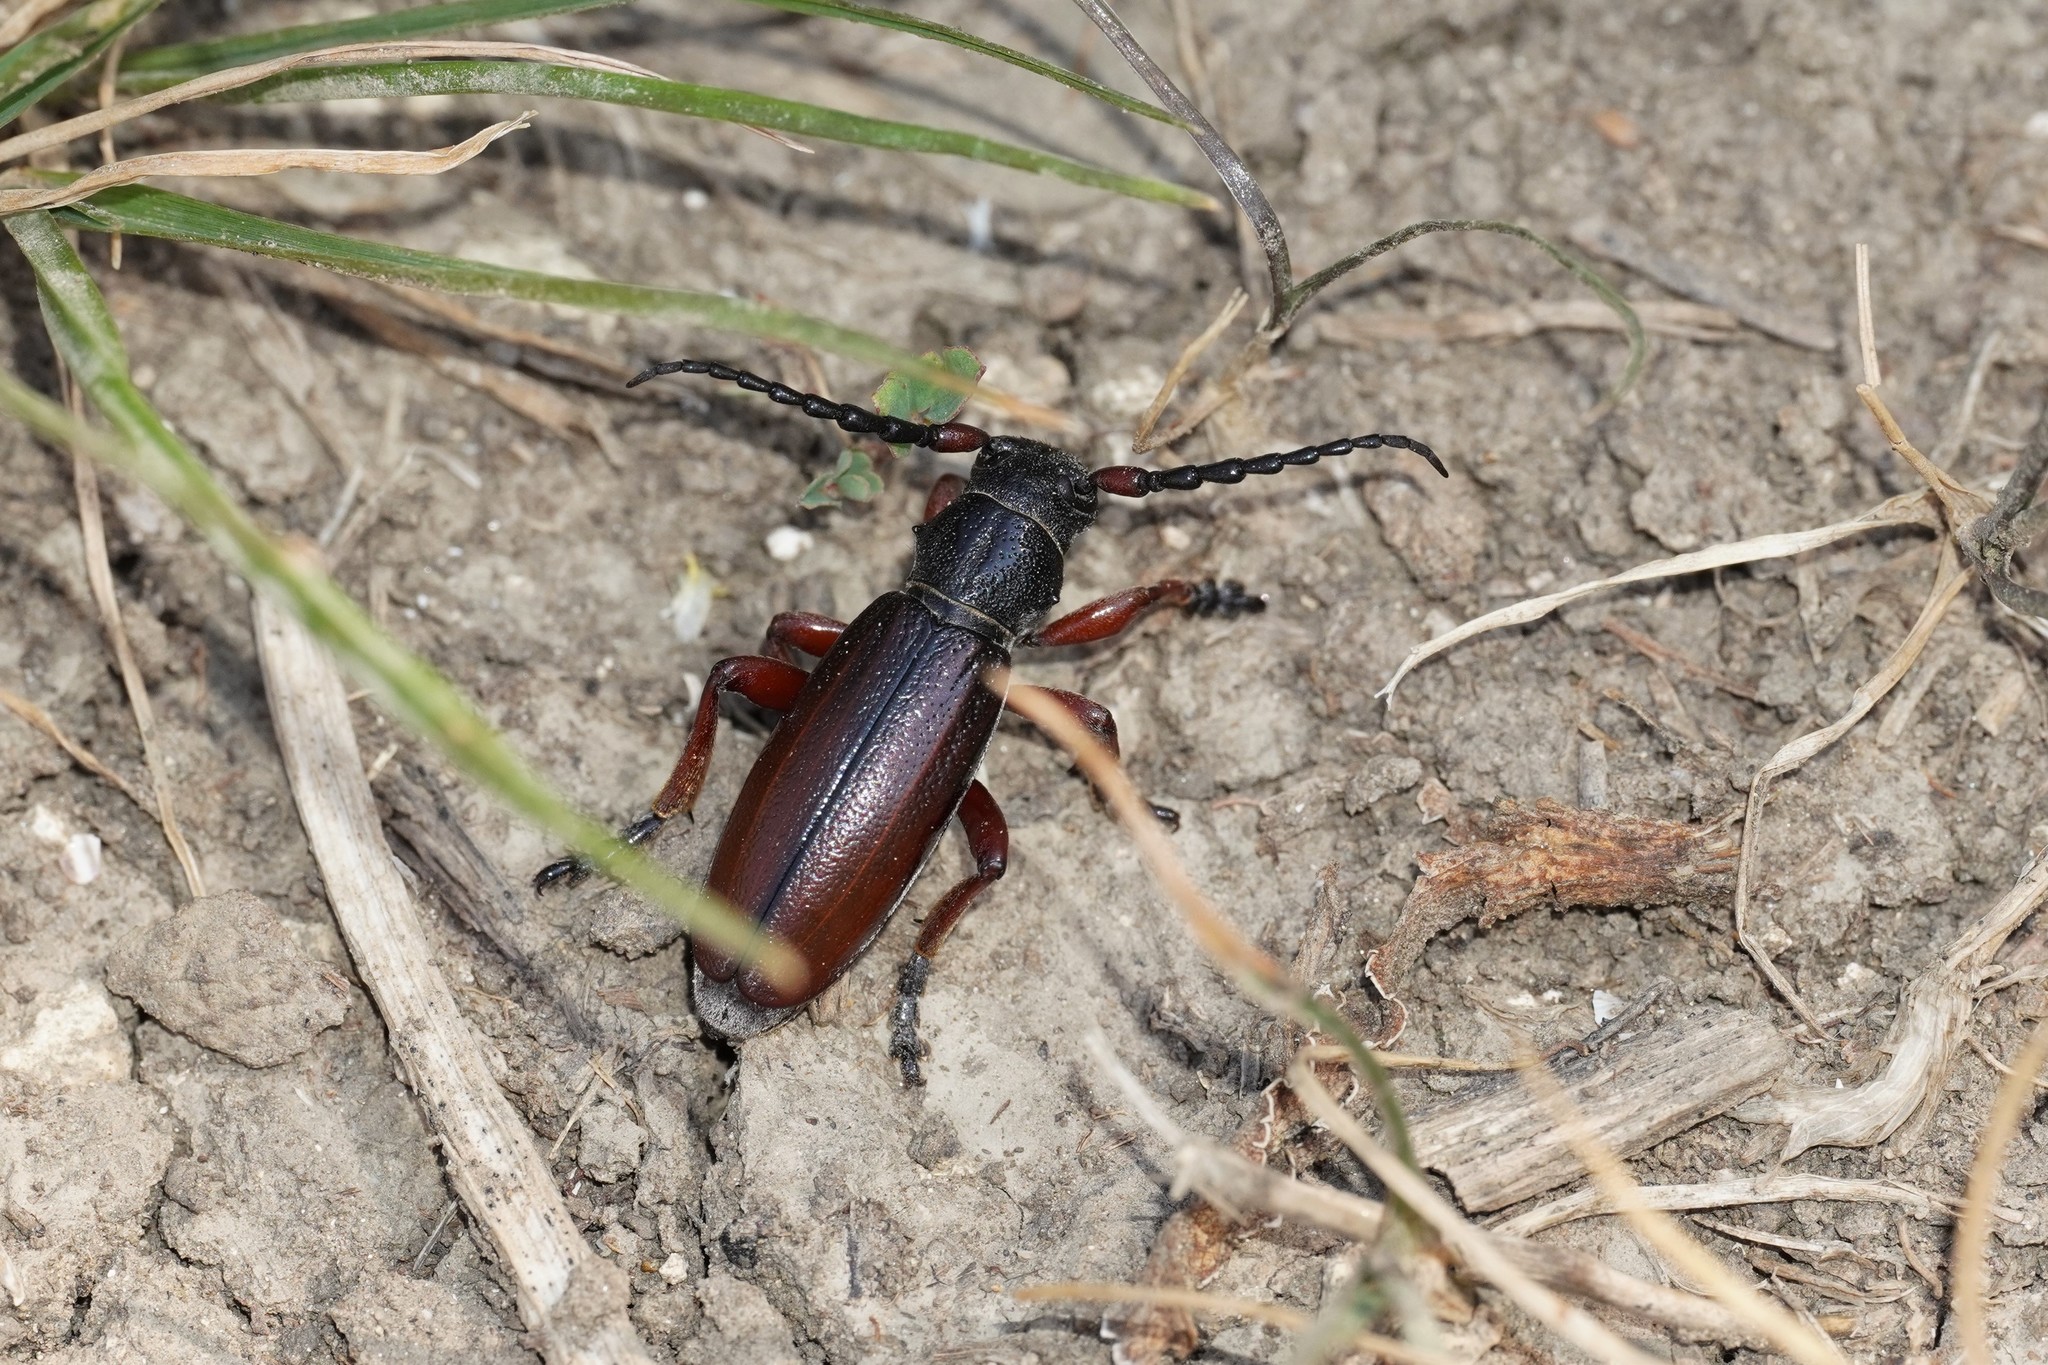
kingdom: Animalia
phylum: Arthropoda
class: Insecta
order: Coleoptera
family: Cerambycidae
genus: Dorcadion
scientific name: Dorcadion fulvum
